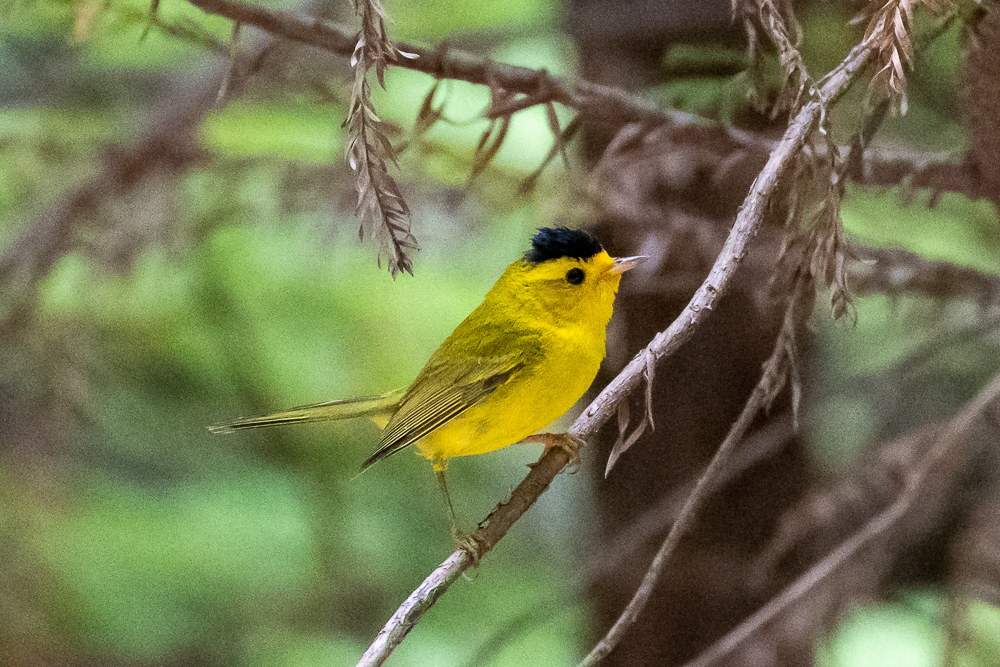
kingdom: Animalia
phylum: Chordata
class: Aves
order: Passeriformes
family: Parulidae
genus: Cardellina
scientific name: Cardellina pusilla
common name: Wilson's warbler
